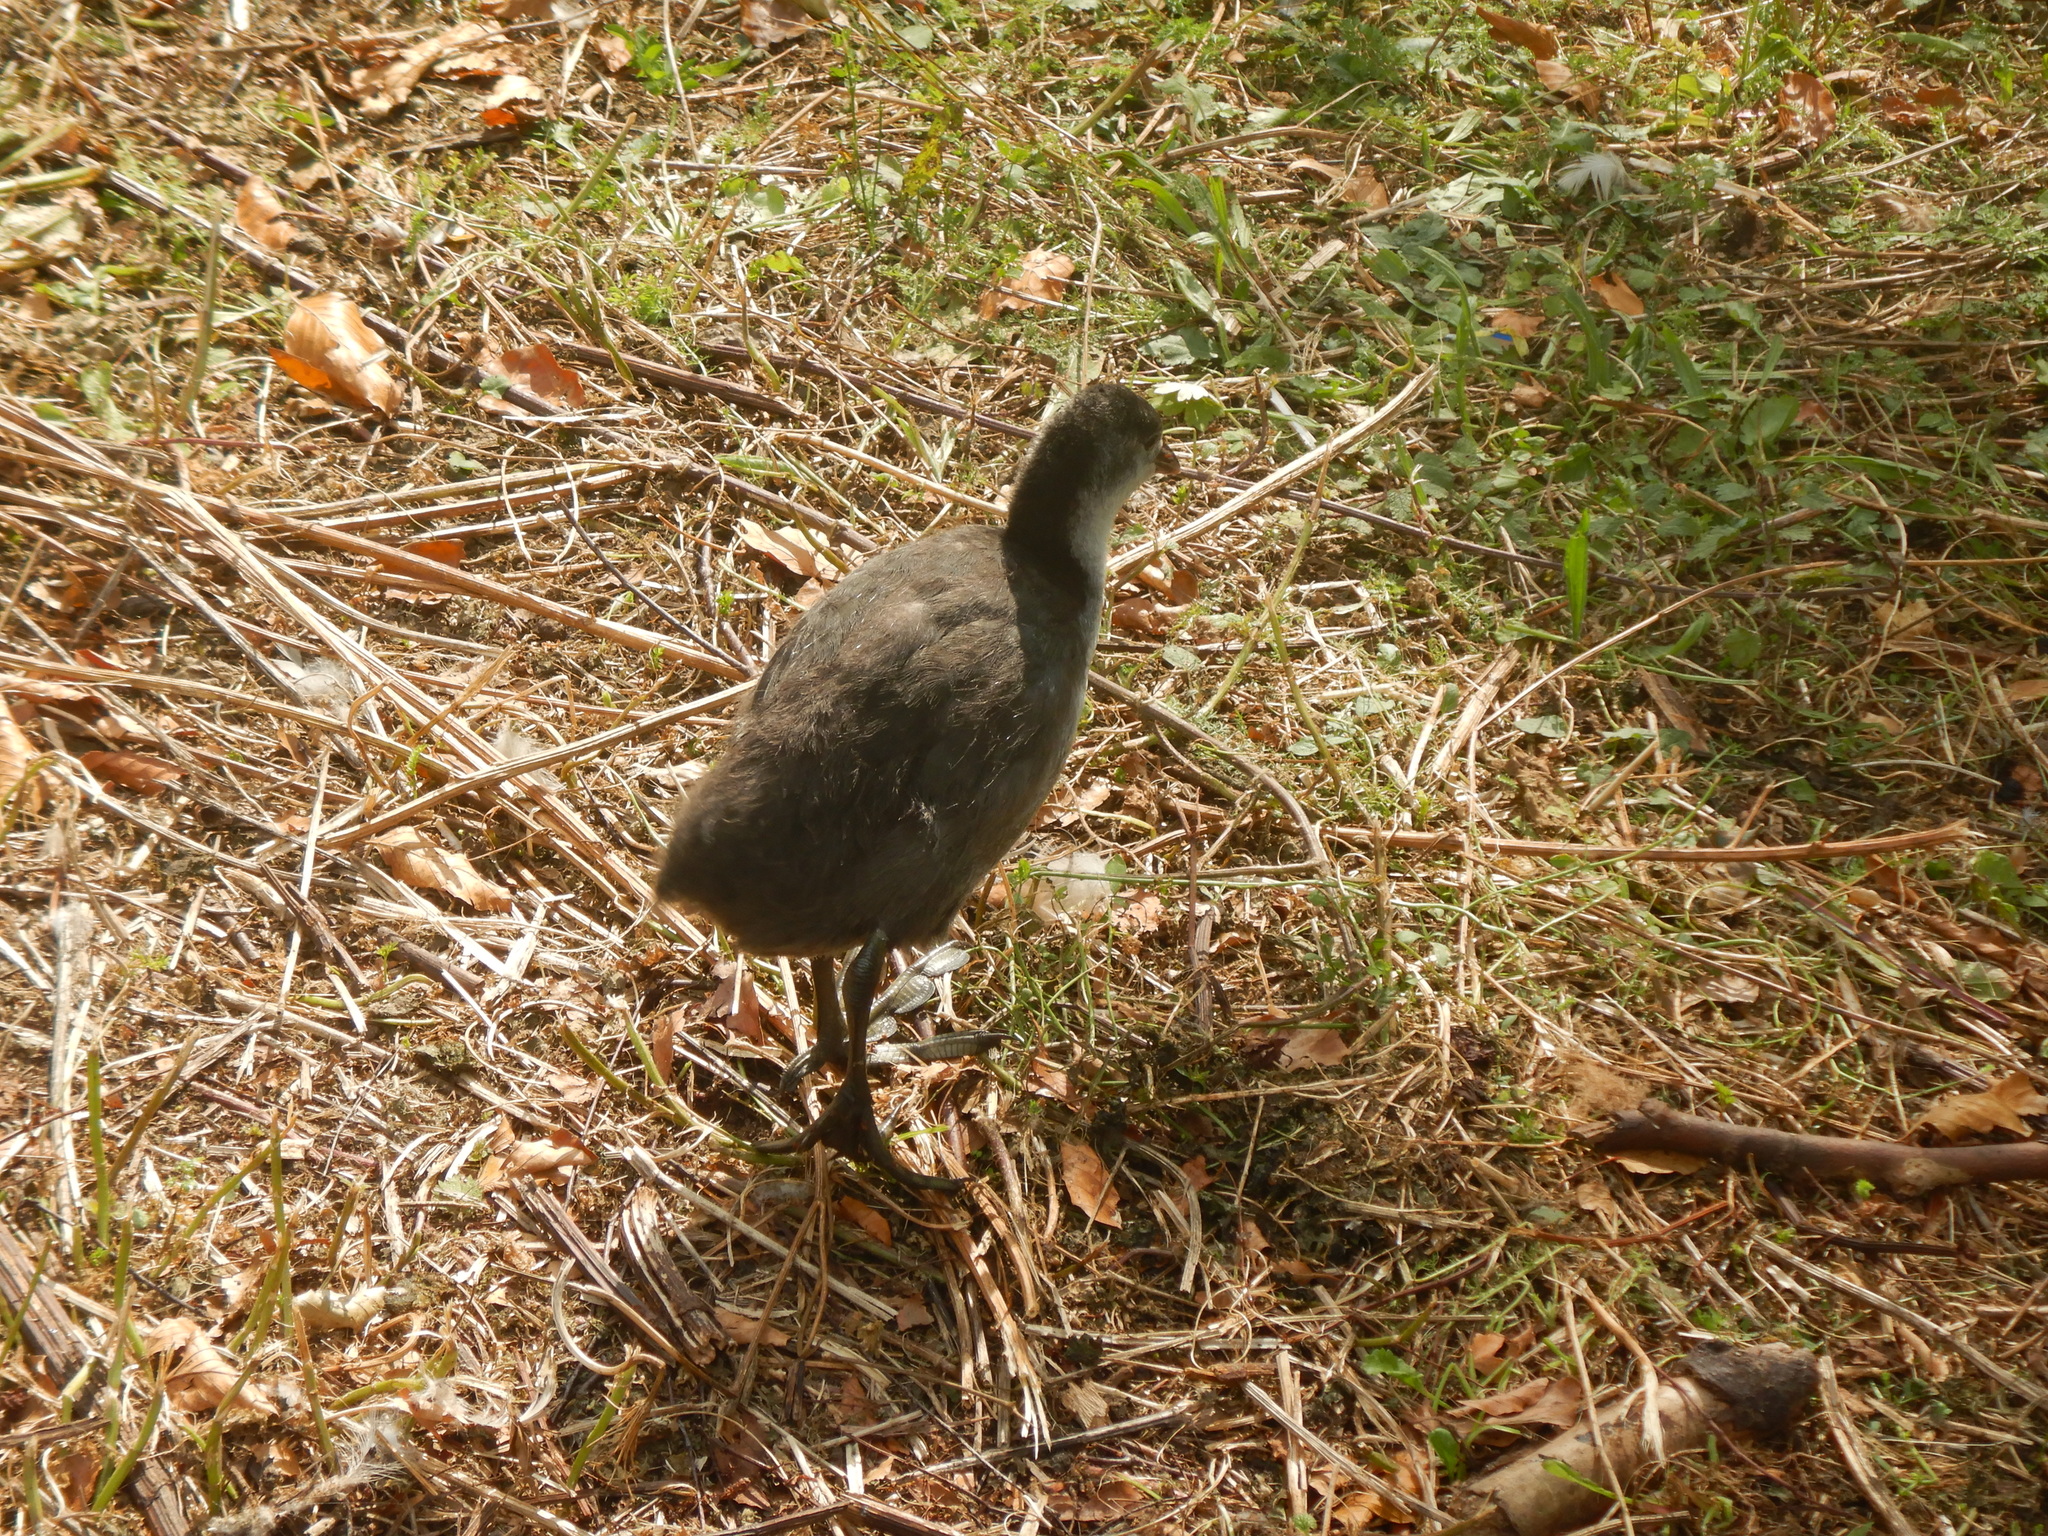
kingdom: Animalia
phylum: Chordata
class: Aves
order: Gruiformes
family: Rallidae
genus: Fulica
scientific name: Fulica atra
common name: Eurasian coot
